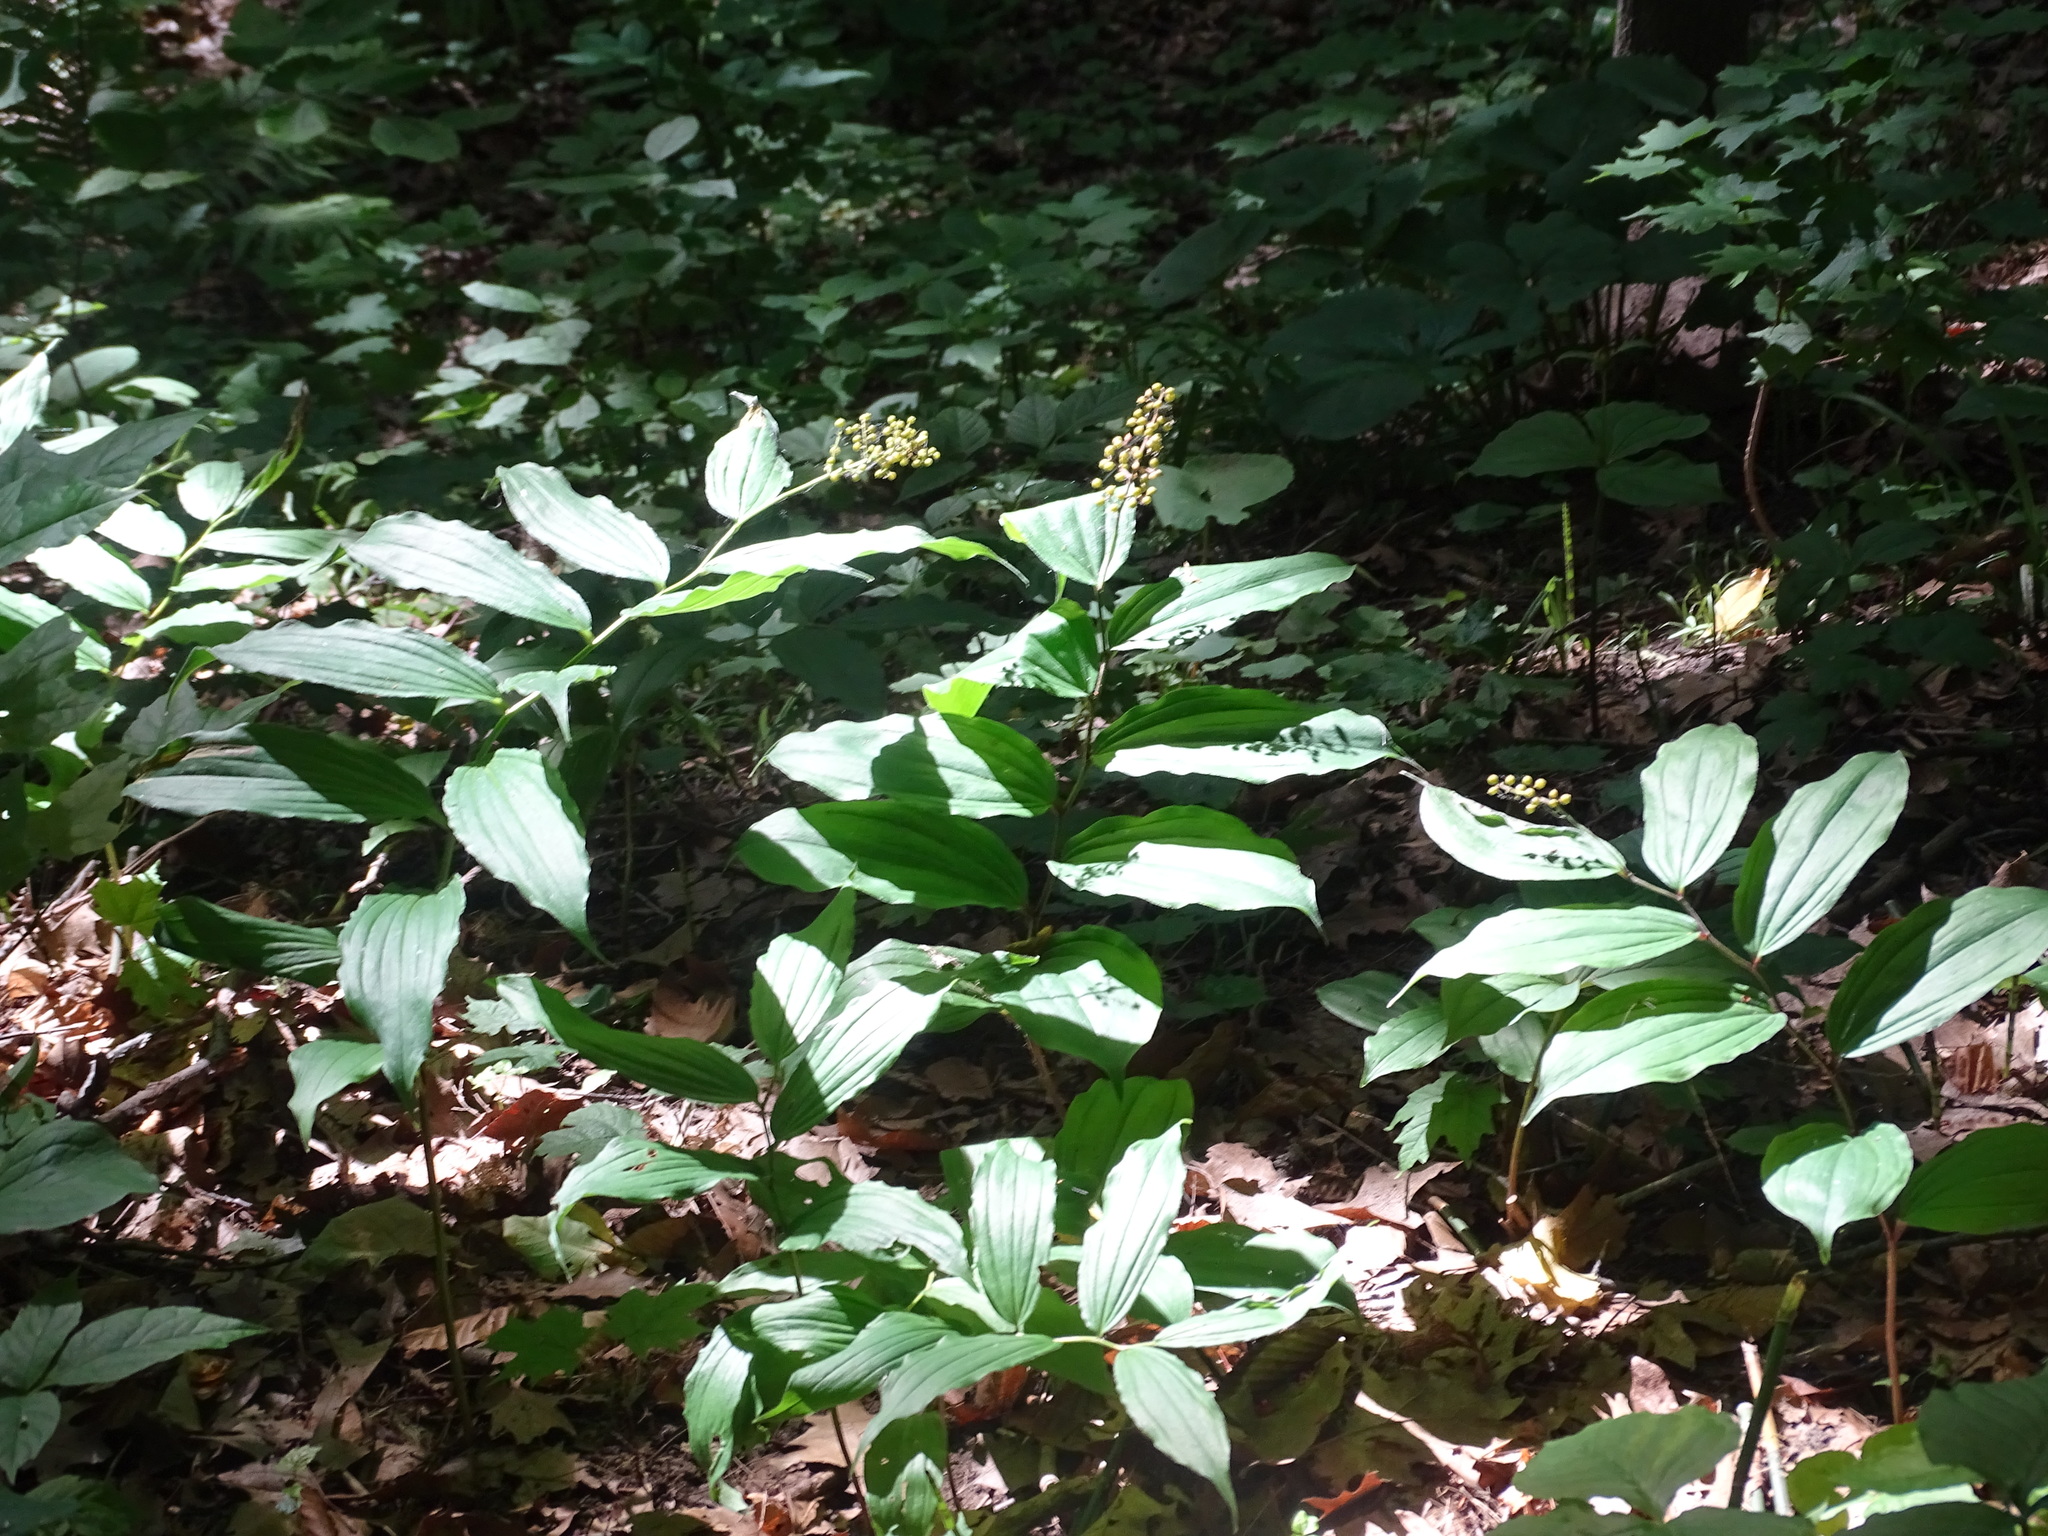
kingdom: Plantae
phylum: Tracheophyta
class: Liliopsida
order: Asparagales
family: Asparagaceae
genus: Maianthemum
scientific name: Maianthemum racemosum
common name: False spikenard
